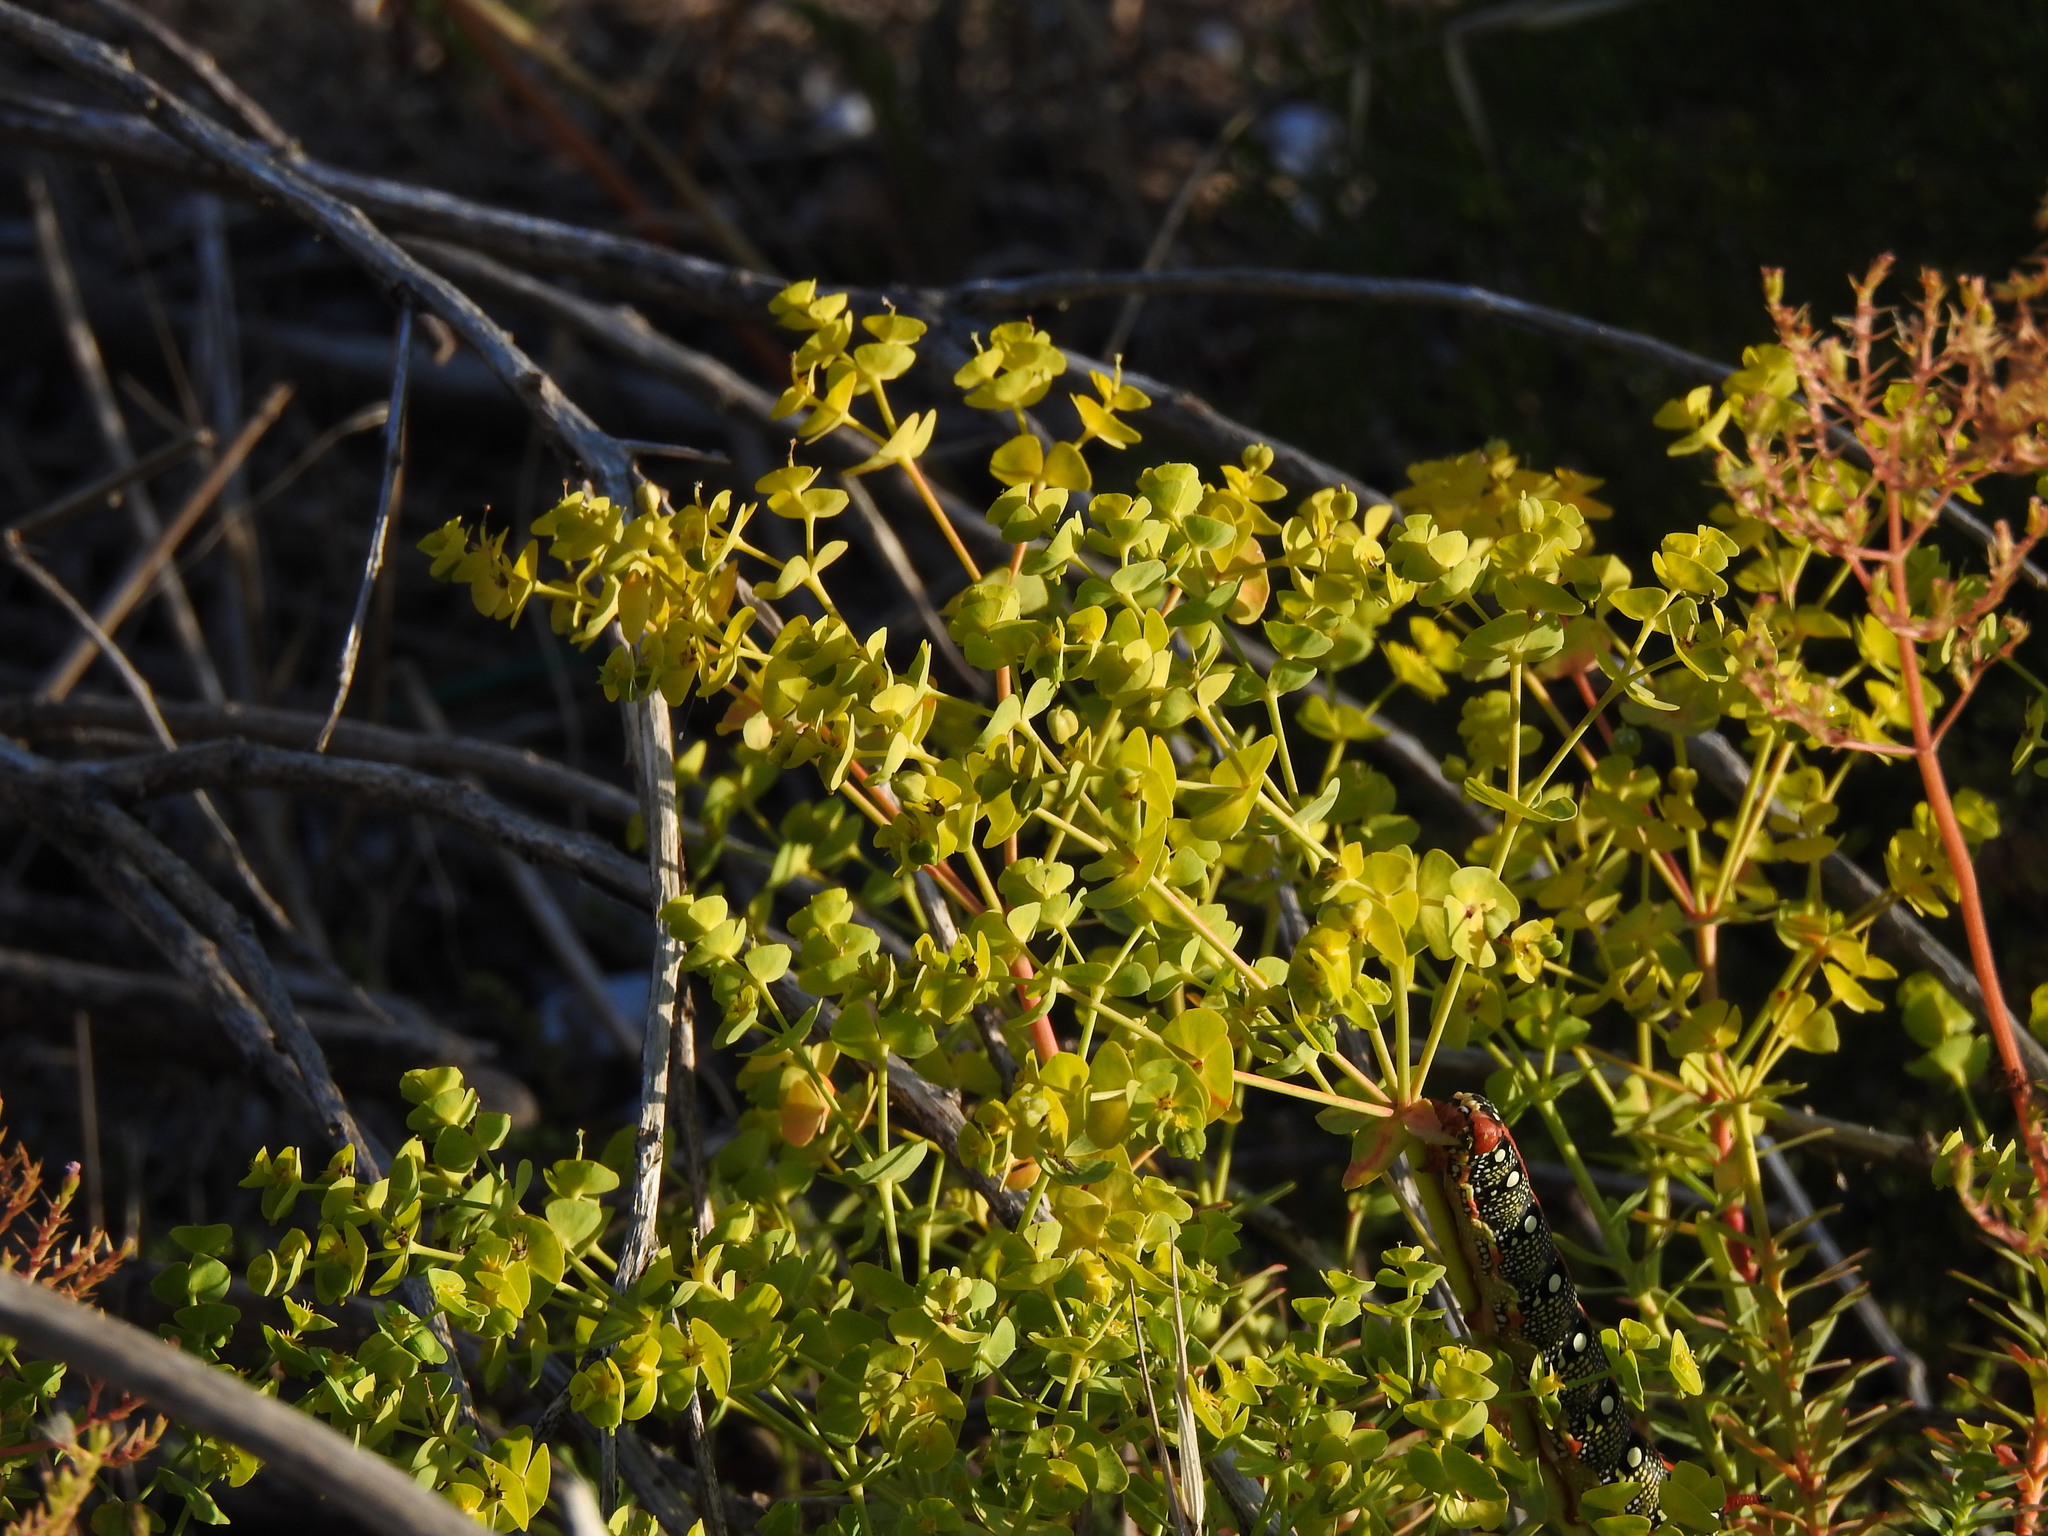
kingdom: Animalia
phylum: Arthropoda
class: Insecta
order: Lepidoptera
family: Sphingidae
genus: Hyles
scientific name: Hyles euphorbiae
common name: Spurge hawk-moth
